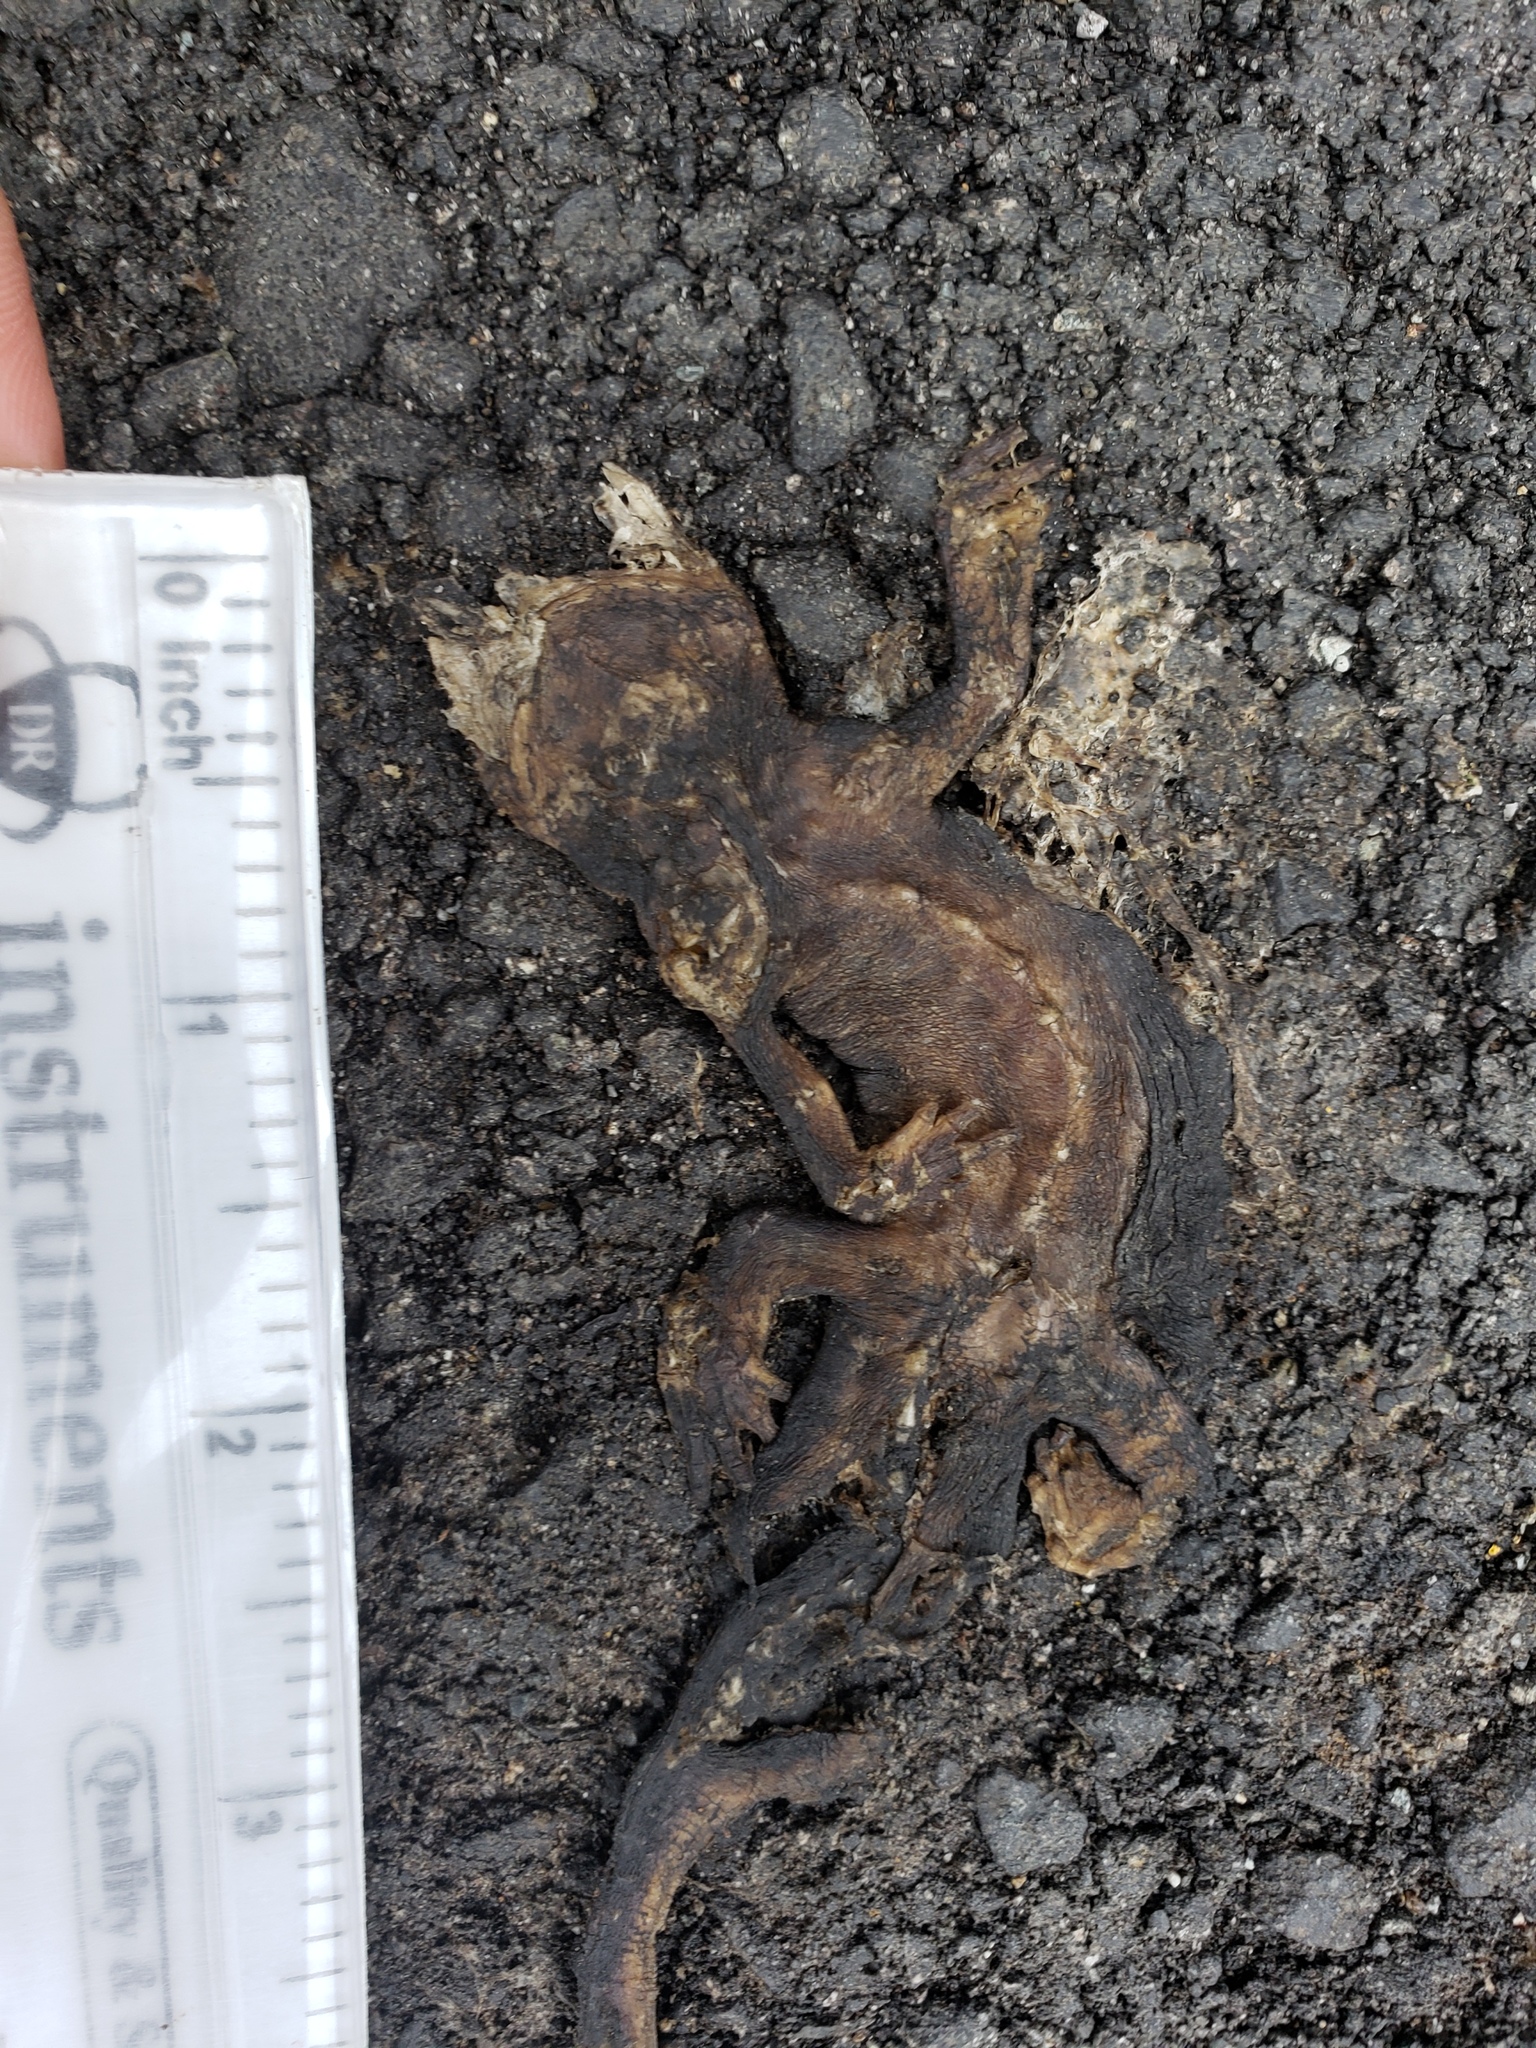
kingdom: Animalia
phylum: Chordata
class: Amphibia
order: Caudata
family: Salamandridae
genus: Taricha
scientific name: Taricha
